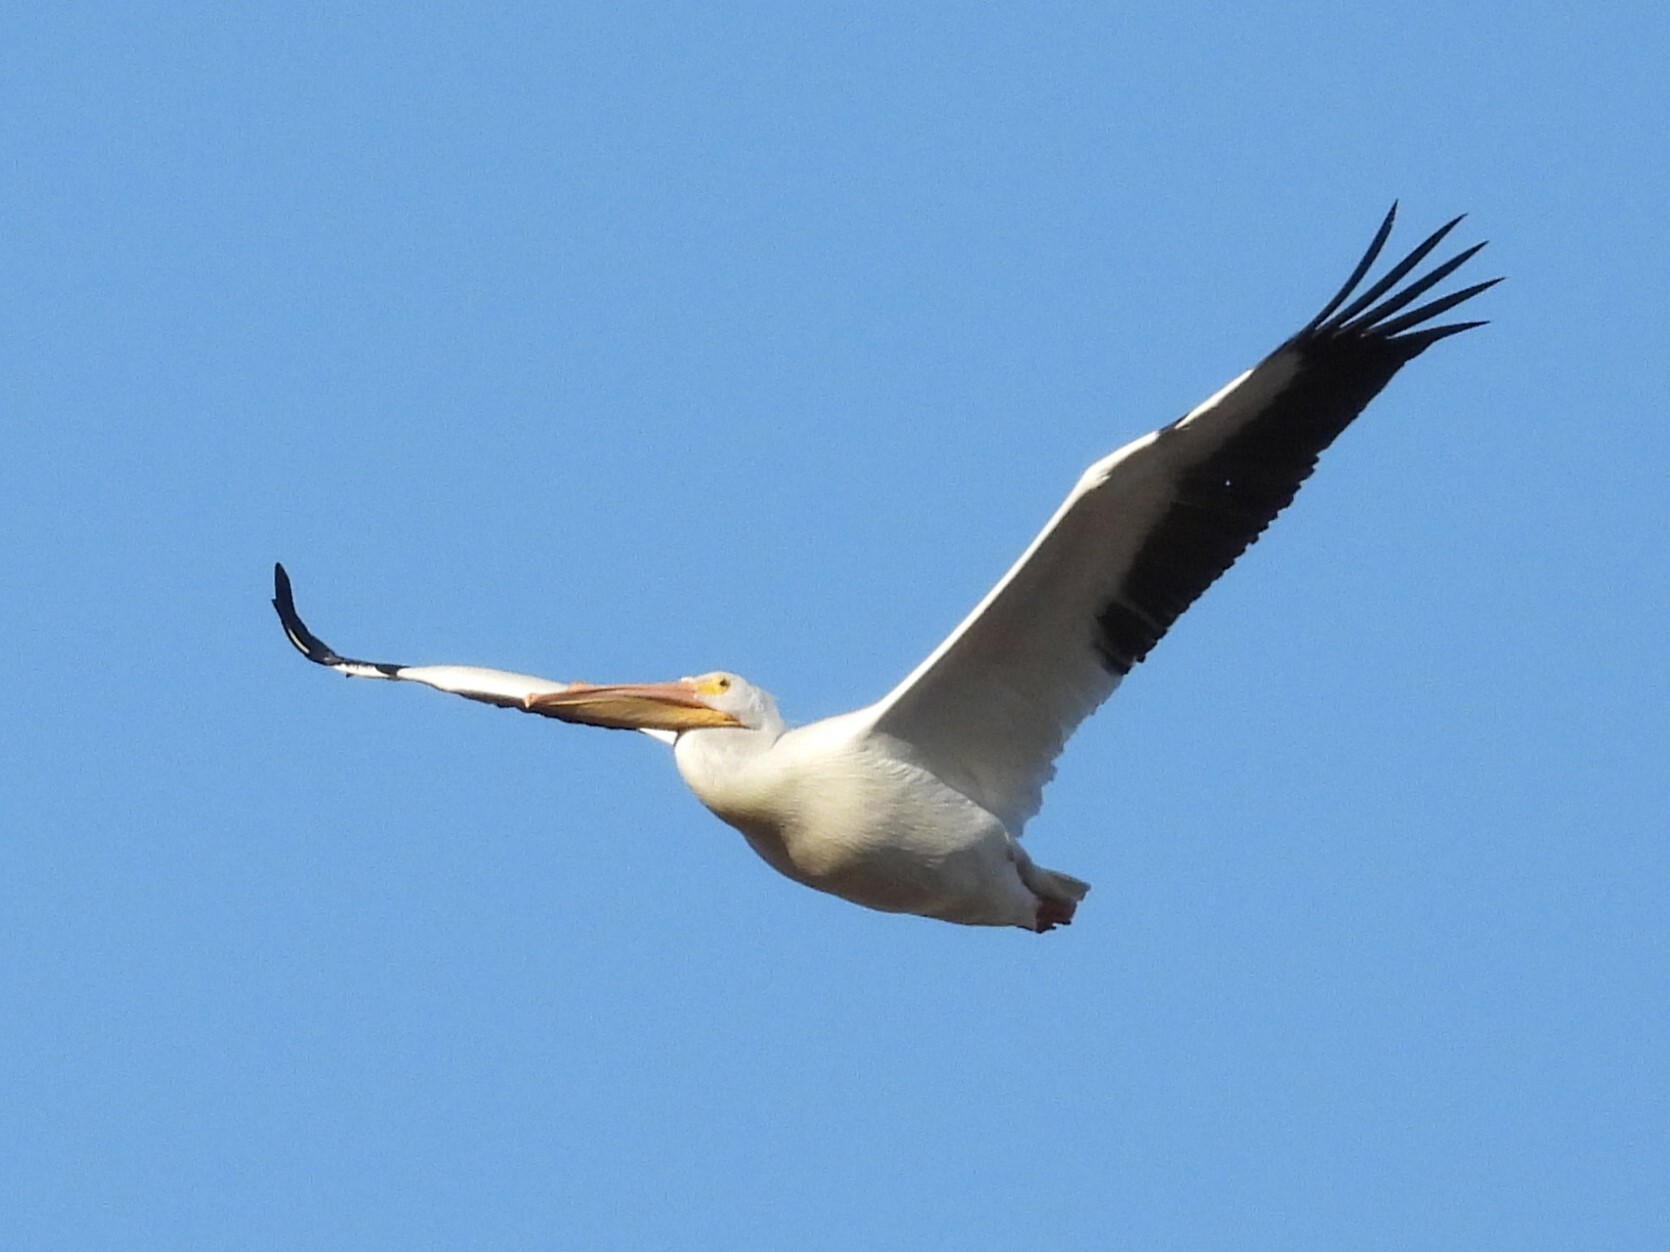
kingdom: Animalia
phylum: Chordata
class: Aves
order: Pelecaniformes
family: Pelecanidae
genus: Pelecanus
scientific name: Pelecanus erythrorhynchos
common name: American white pelican
